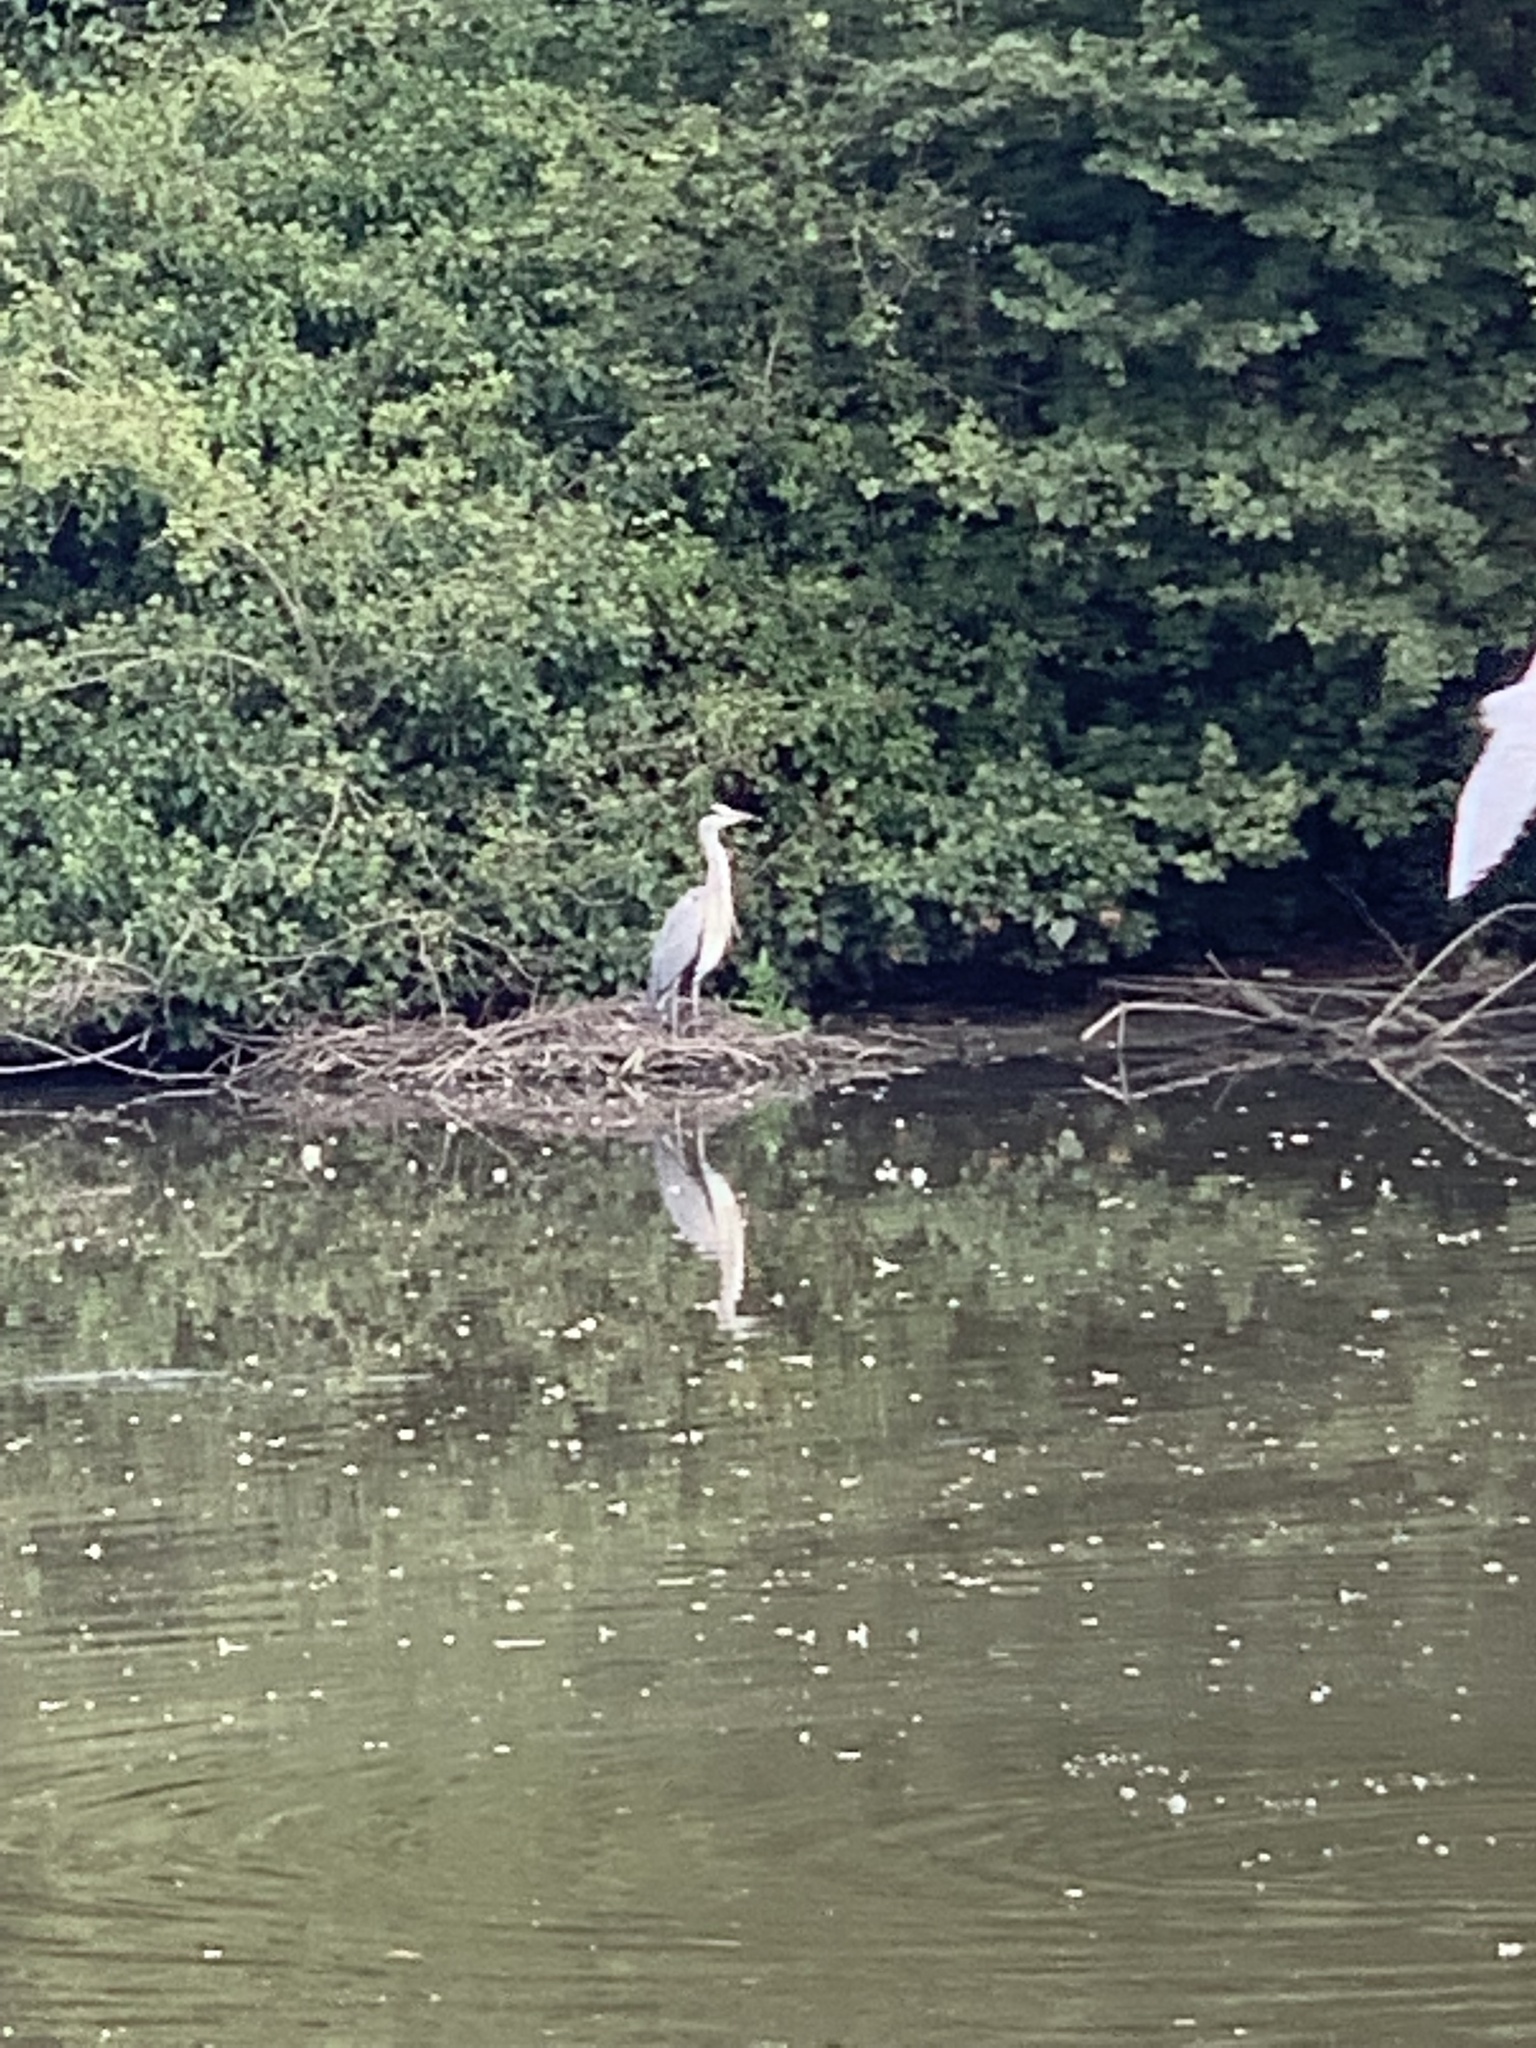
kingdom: Animalia
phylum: Chordata
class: Aves
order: Pelecaniformes
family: Ardeidae
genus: Ardea
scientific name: Ardea cinerea
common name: Grey heron
